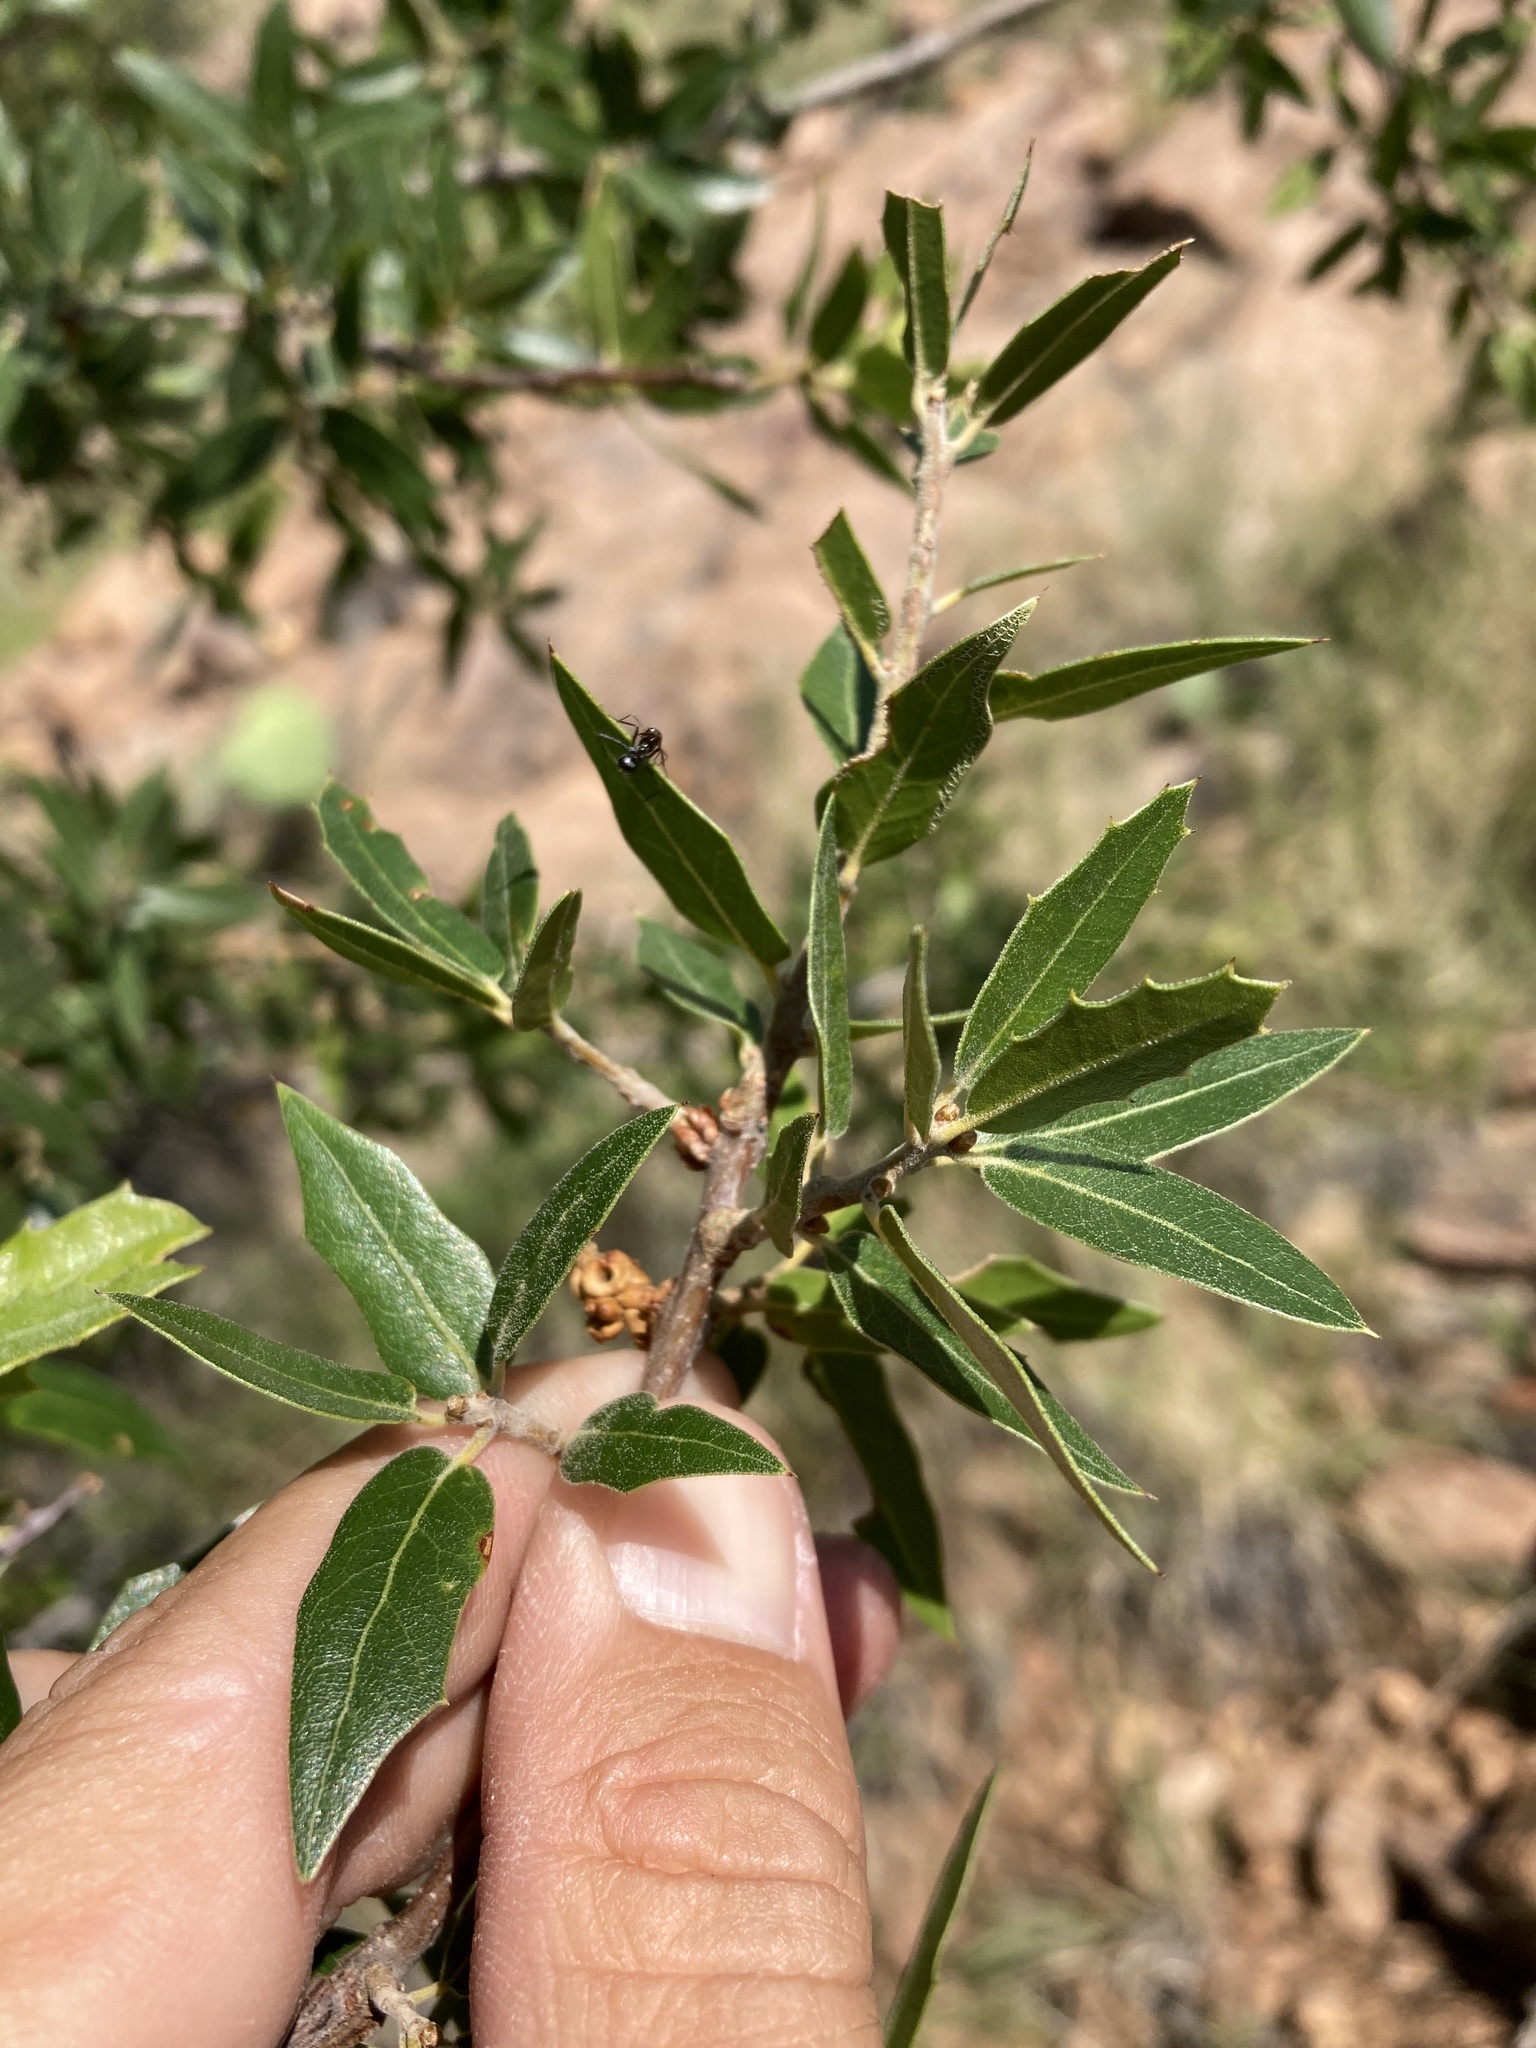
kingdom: Plantae
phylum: Tracheophyta
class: Magnoliopsida
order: Fagales
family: Fagaceae
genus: Quercus
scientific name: Quercus emoryi
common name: Emory oak
